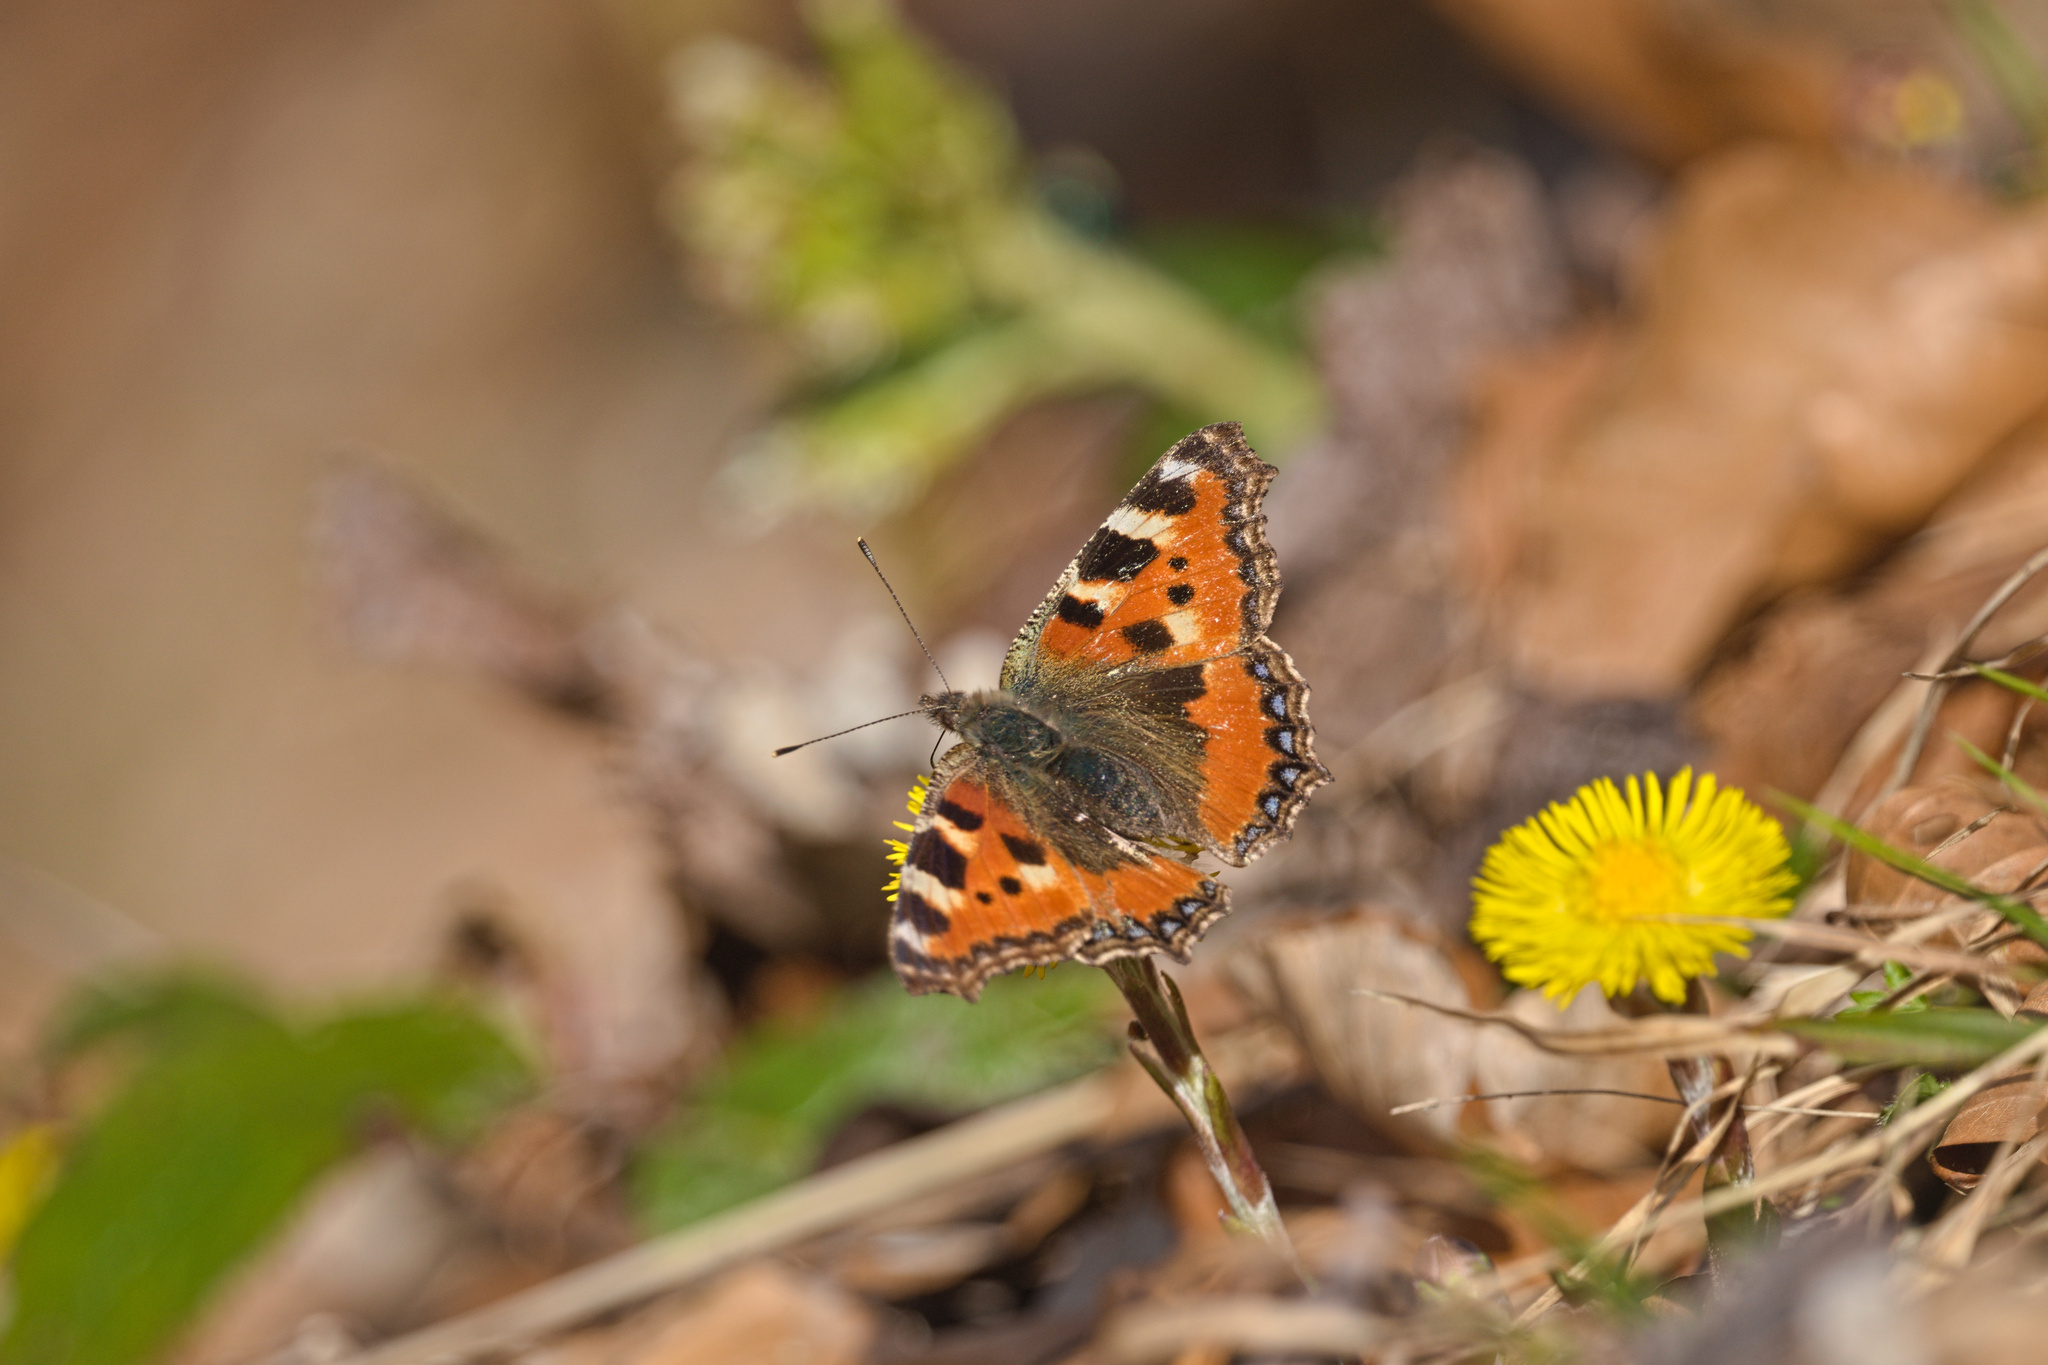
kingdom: Animalia
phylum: Arthropoda
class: Insecta
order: Lepidoptera
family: Nymphalidae
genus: Aglais
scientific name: Aglais urticae
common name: Small tortoiseshell
